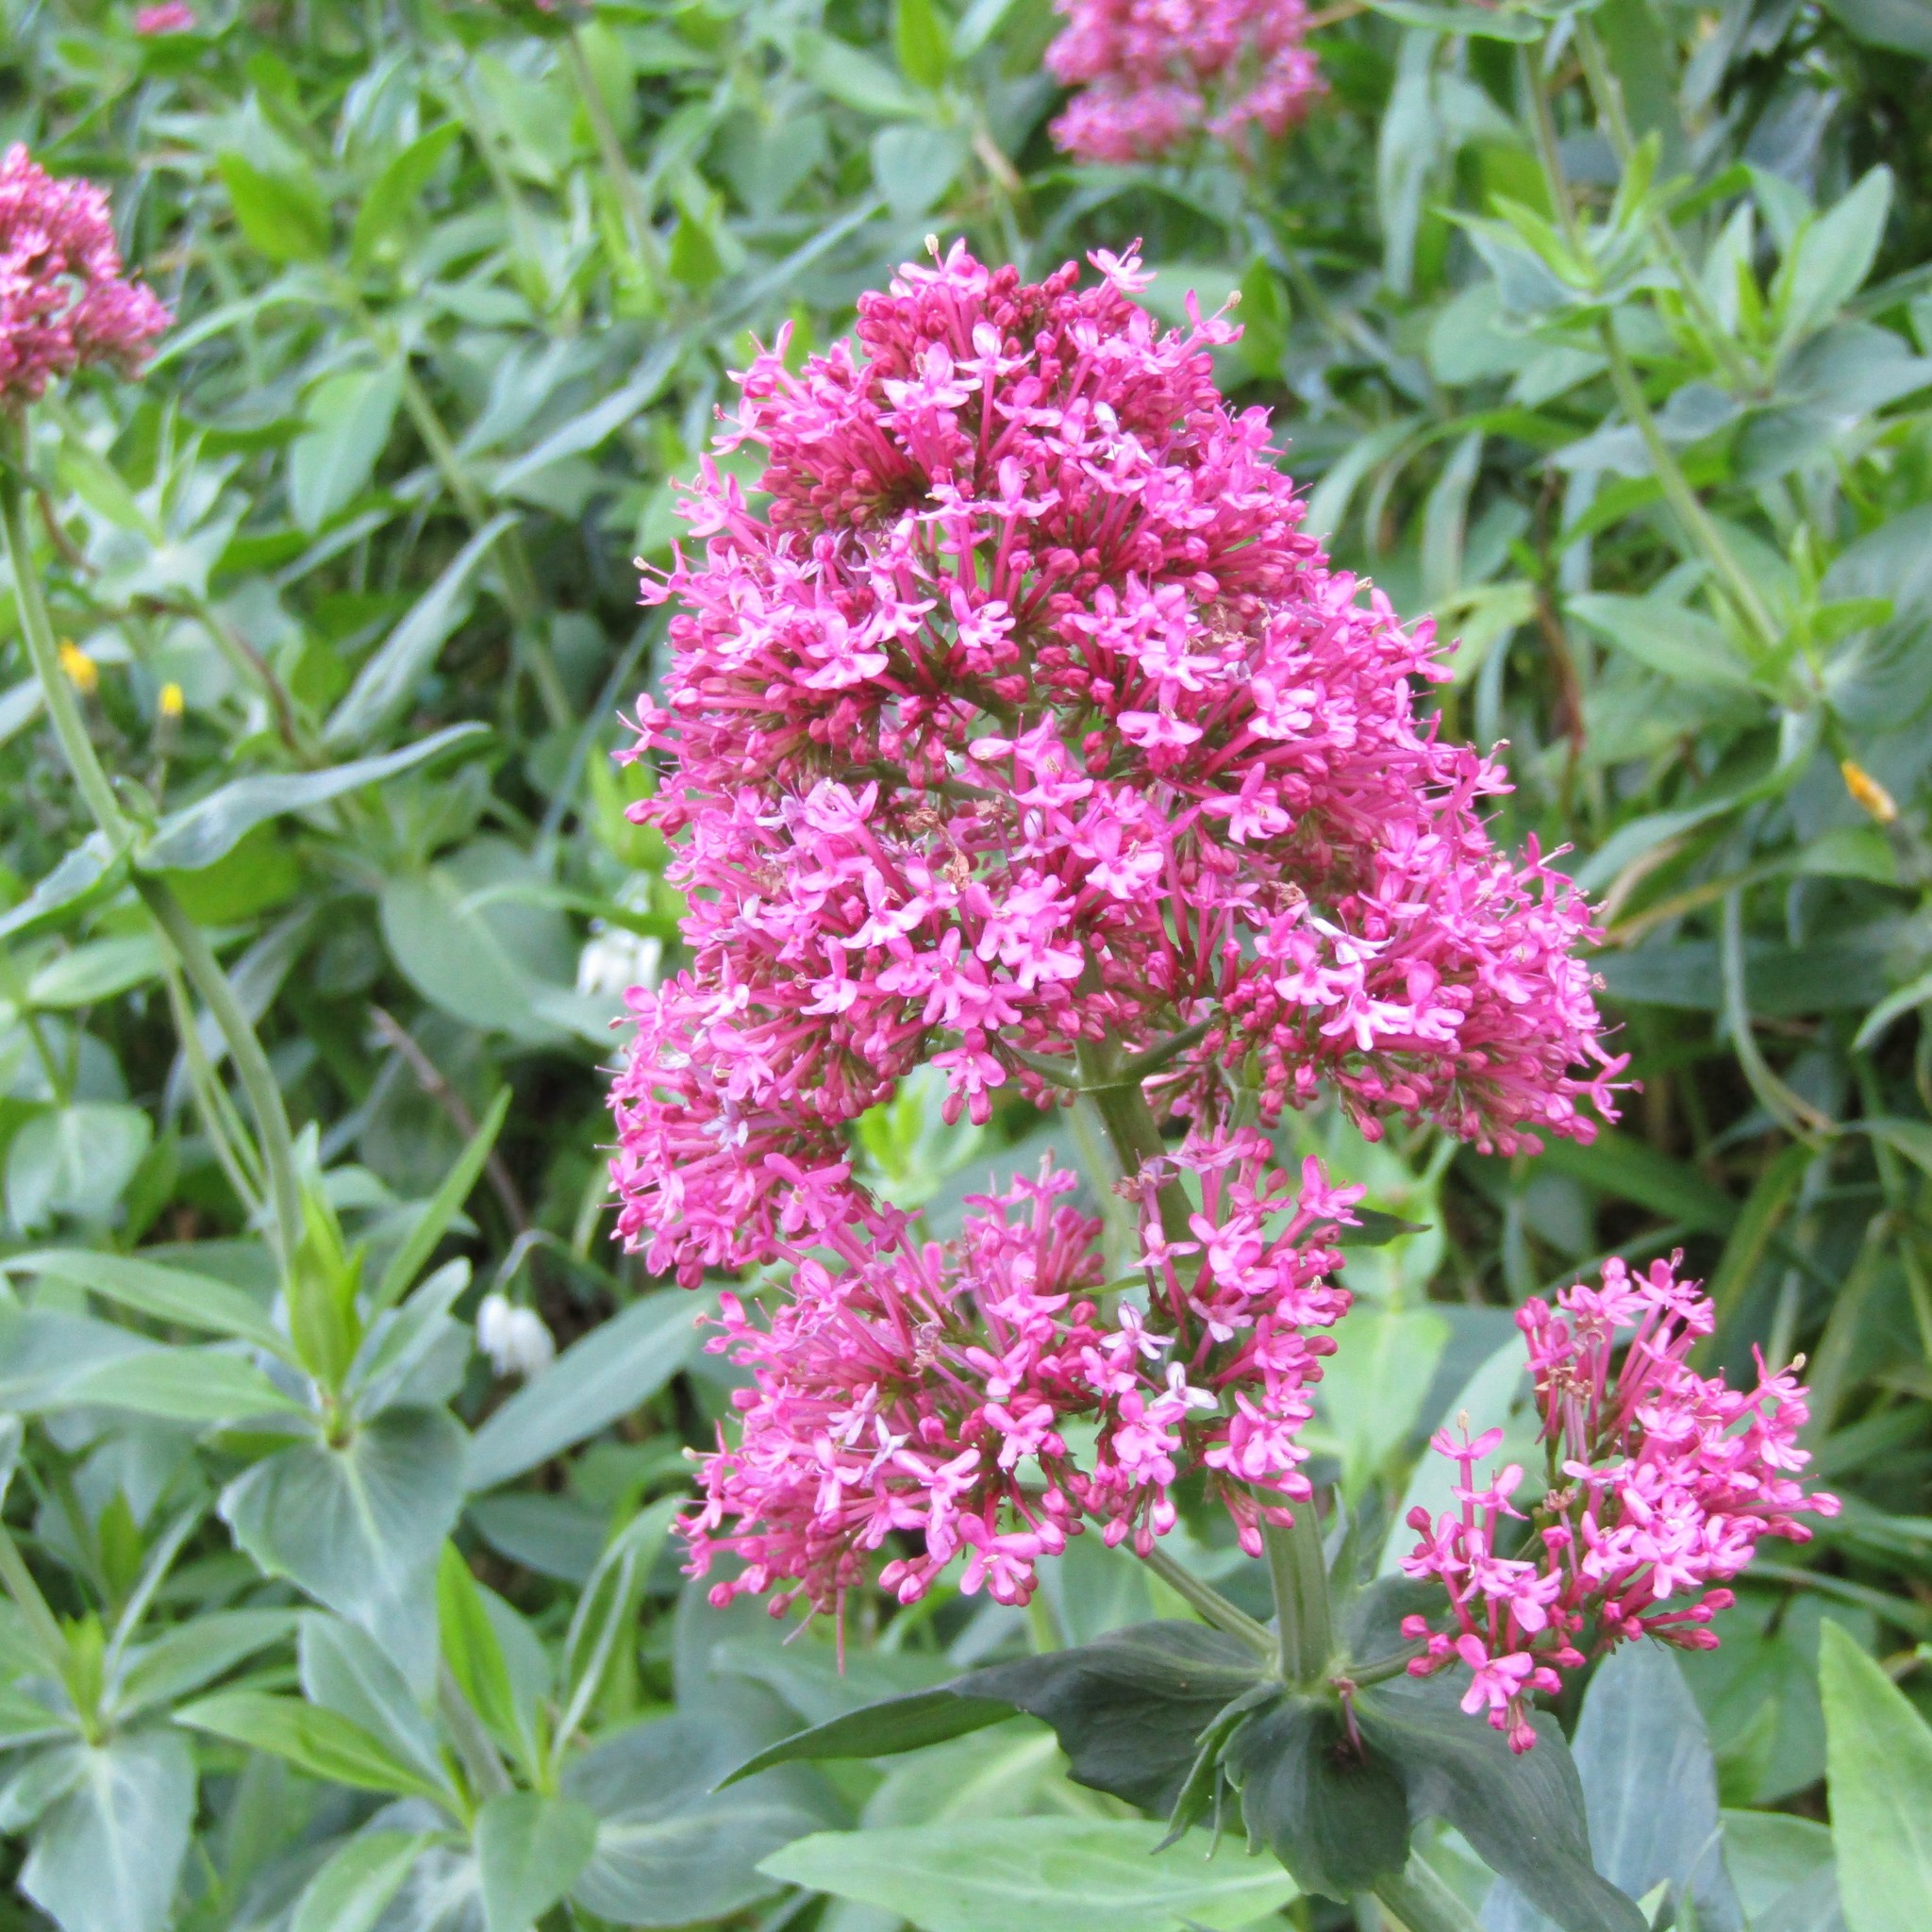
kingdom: Plantae
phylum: Tracheophyta
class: Magnoliopsida
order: Dipsacales
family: Caprifoliaceae
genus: Centranthus
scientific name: Centranthus ruber
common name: Red valerian
